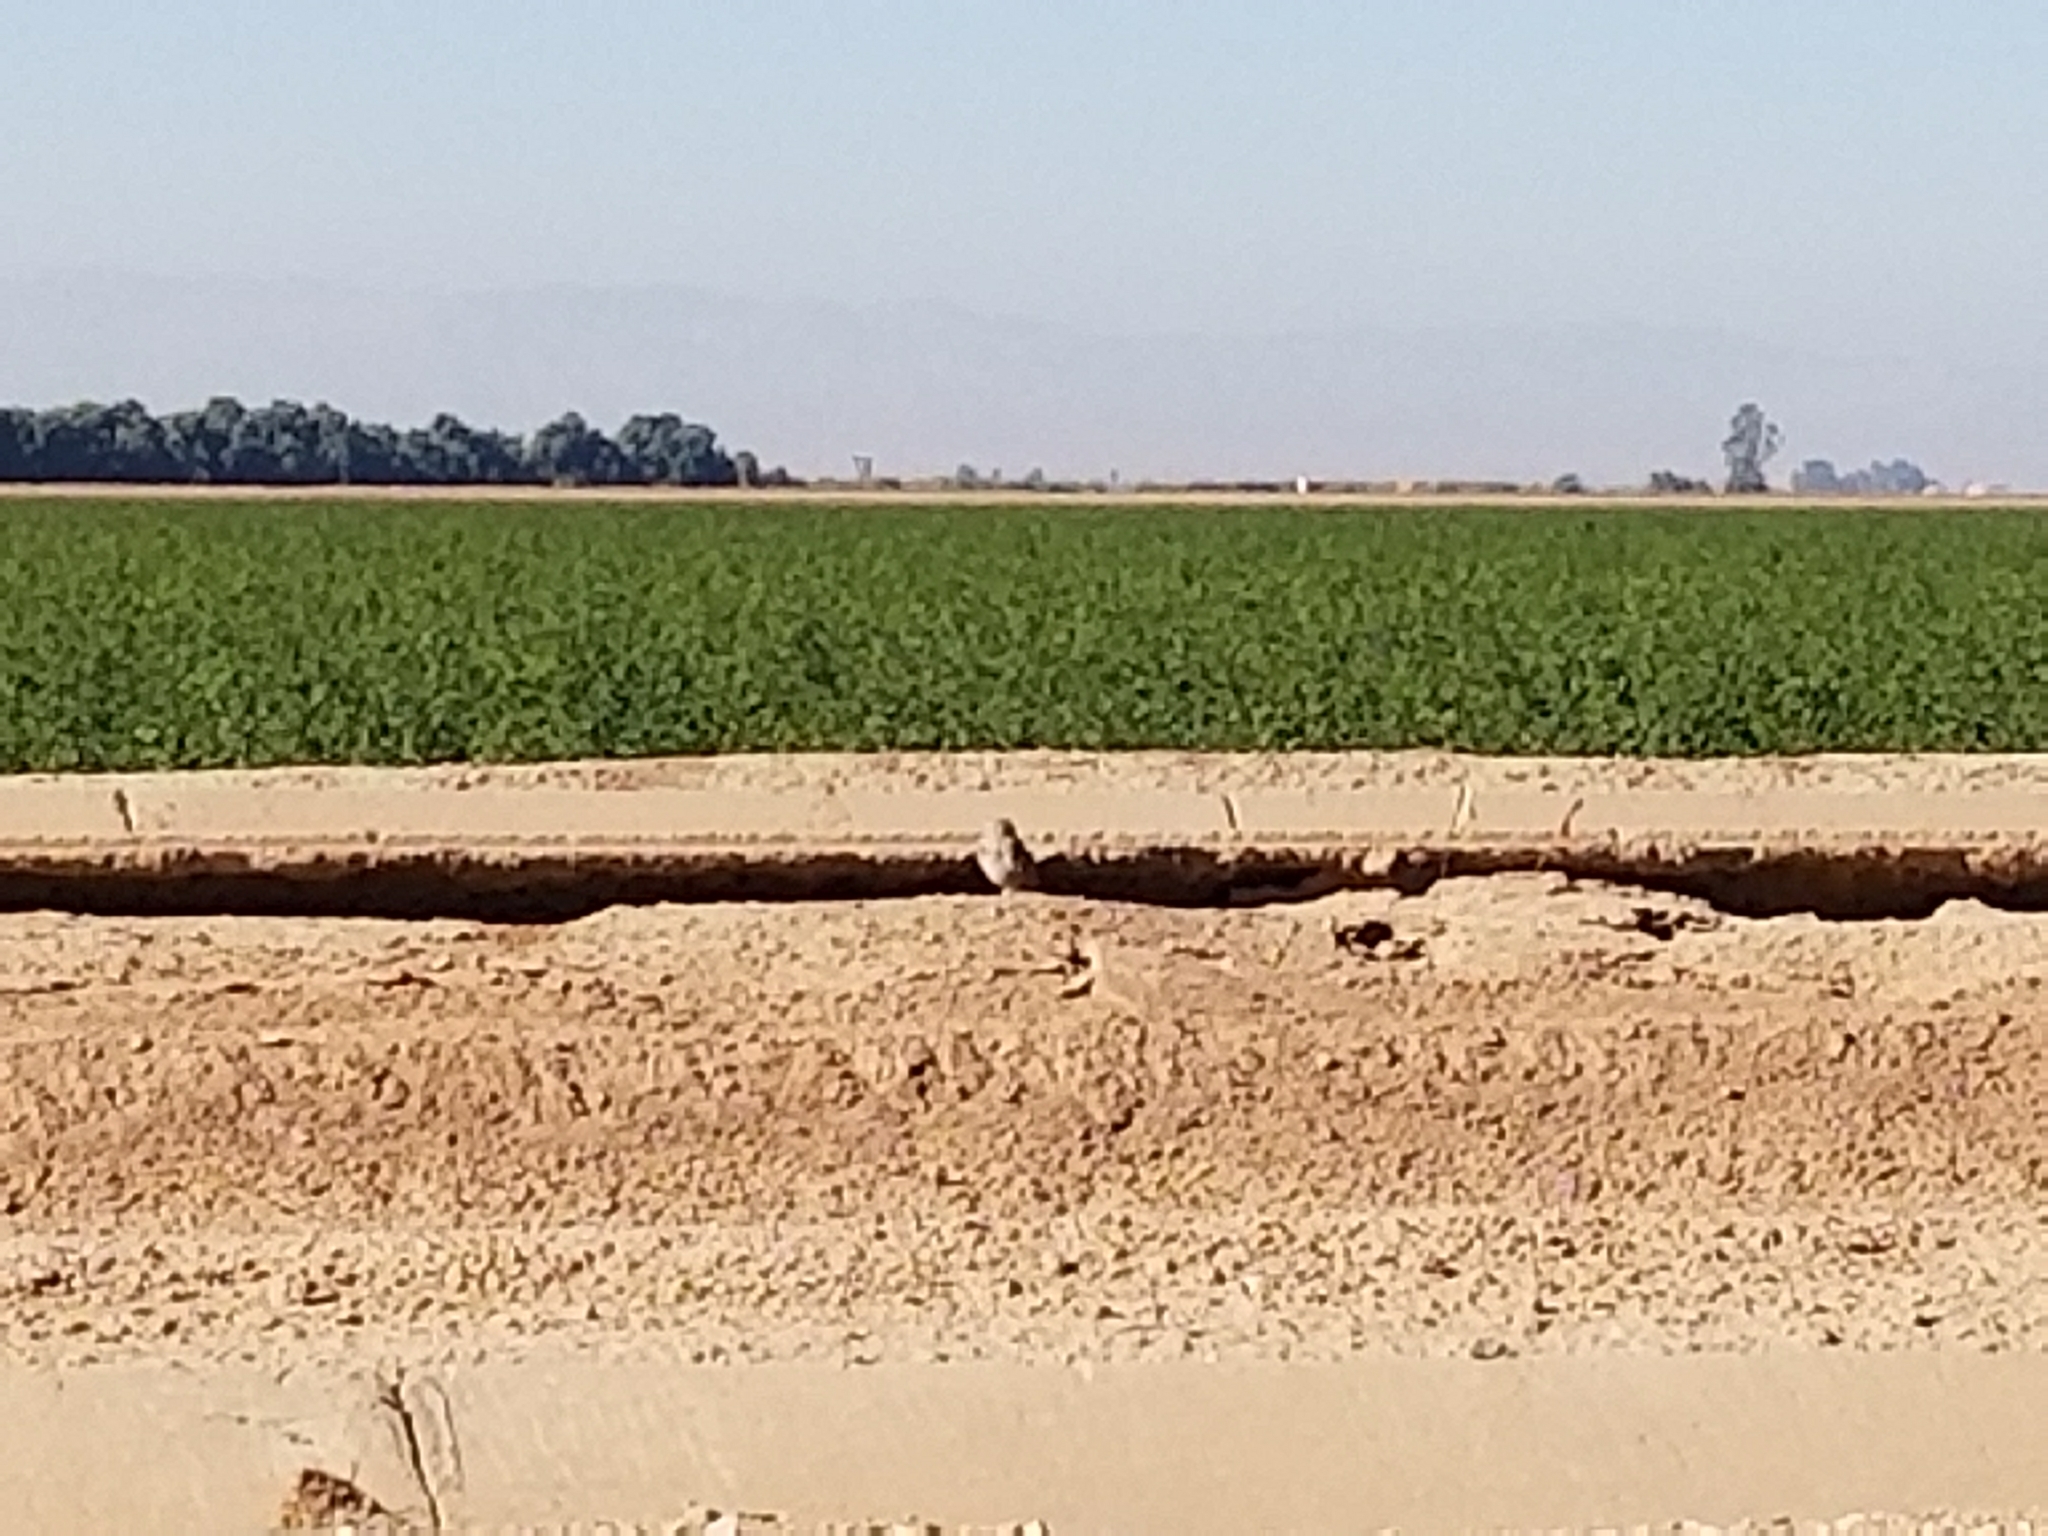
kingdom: Animalia
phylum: Chordata
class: Aves
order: Strigiformes
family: Strigidae
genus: Athene
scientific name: Athene cunicularia
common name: Burrowing owl
